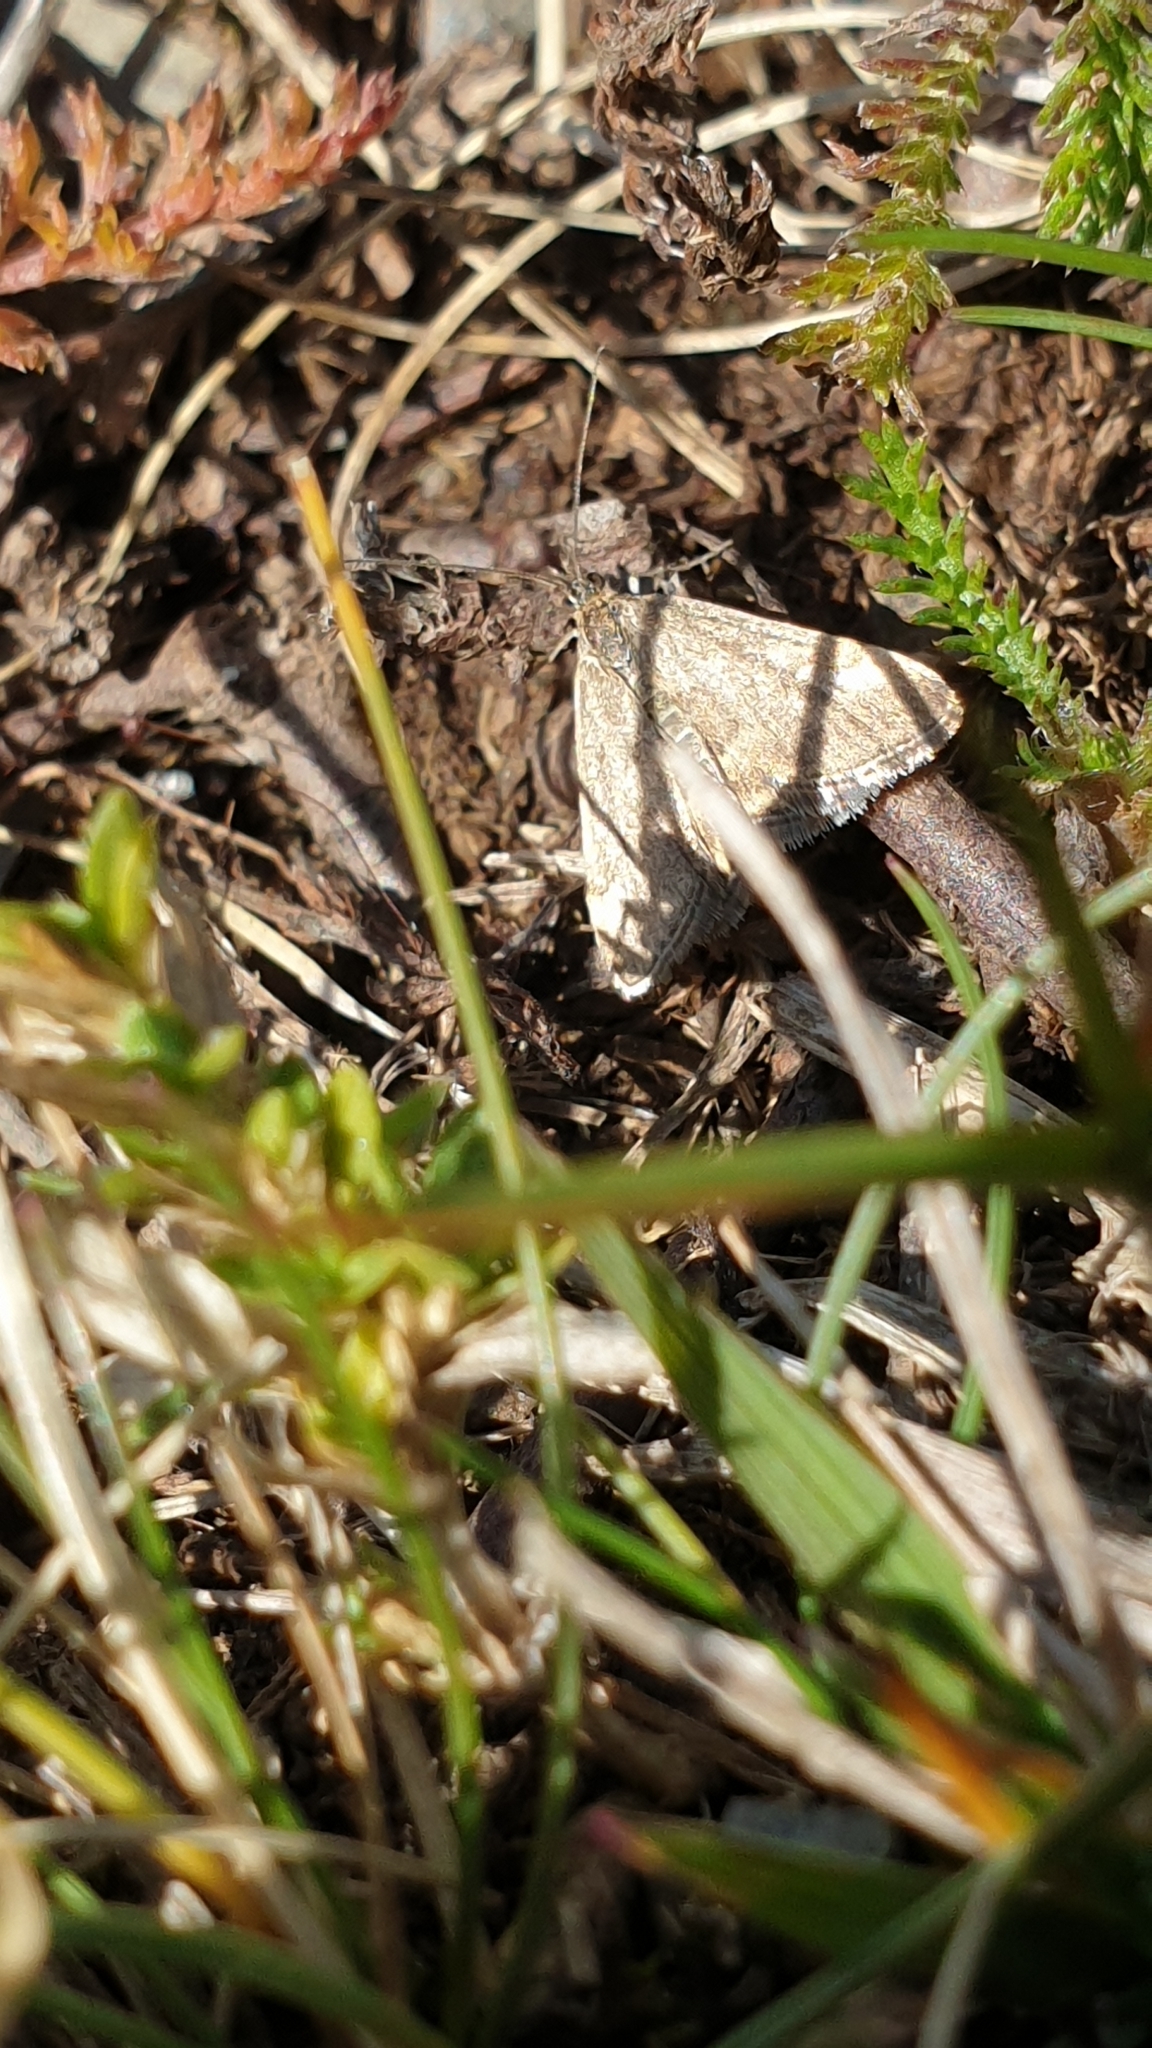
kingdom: Animalia
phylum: Arthropoda
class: Insecta
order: Lepidoptera
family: Crambidae
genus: Pyrausta
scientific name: Pyrausta despicata
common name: Straw-barred pearl
